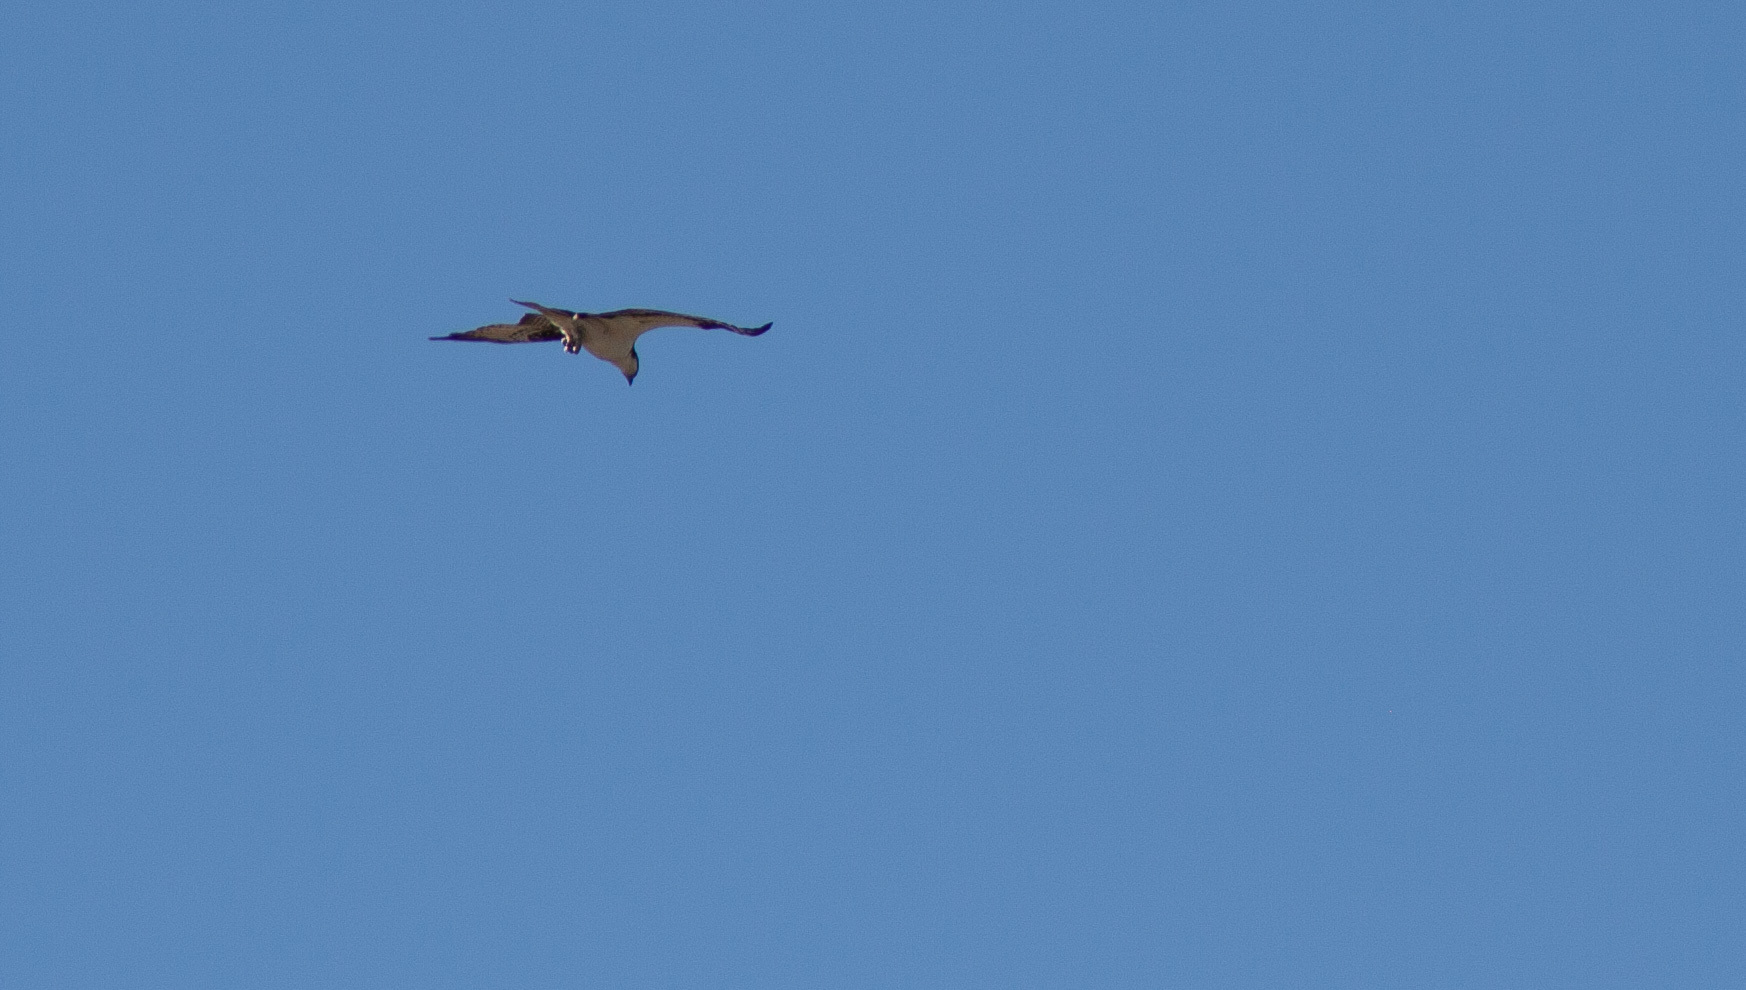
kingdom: Animalia
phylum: Chordata
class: Aves
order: Accipitriformes
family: Pandionidae
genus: Pandion
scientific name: Pandion haliaetus
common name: Osprey
